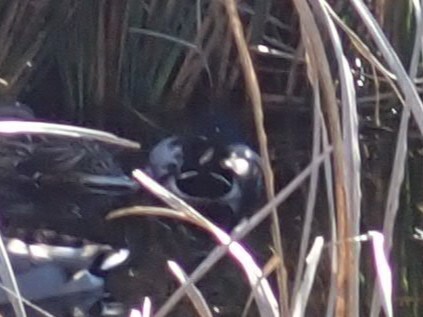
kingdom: Animalia
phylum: Chordata
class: Aves
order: Anseriformes
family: Anatidae
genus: Anas
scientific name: Anas platyrhynchos
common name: Mallard
